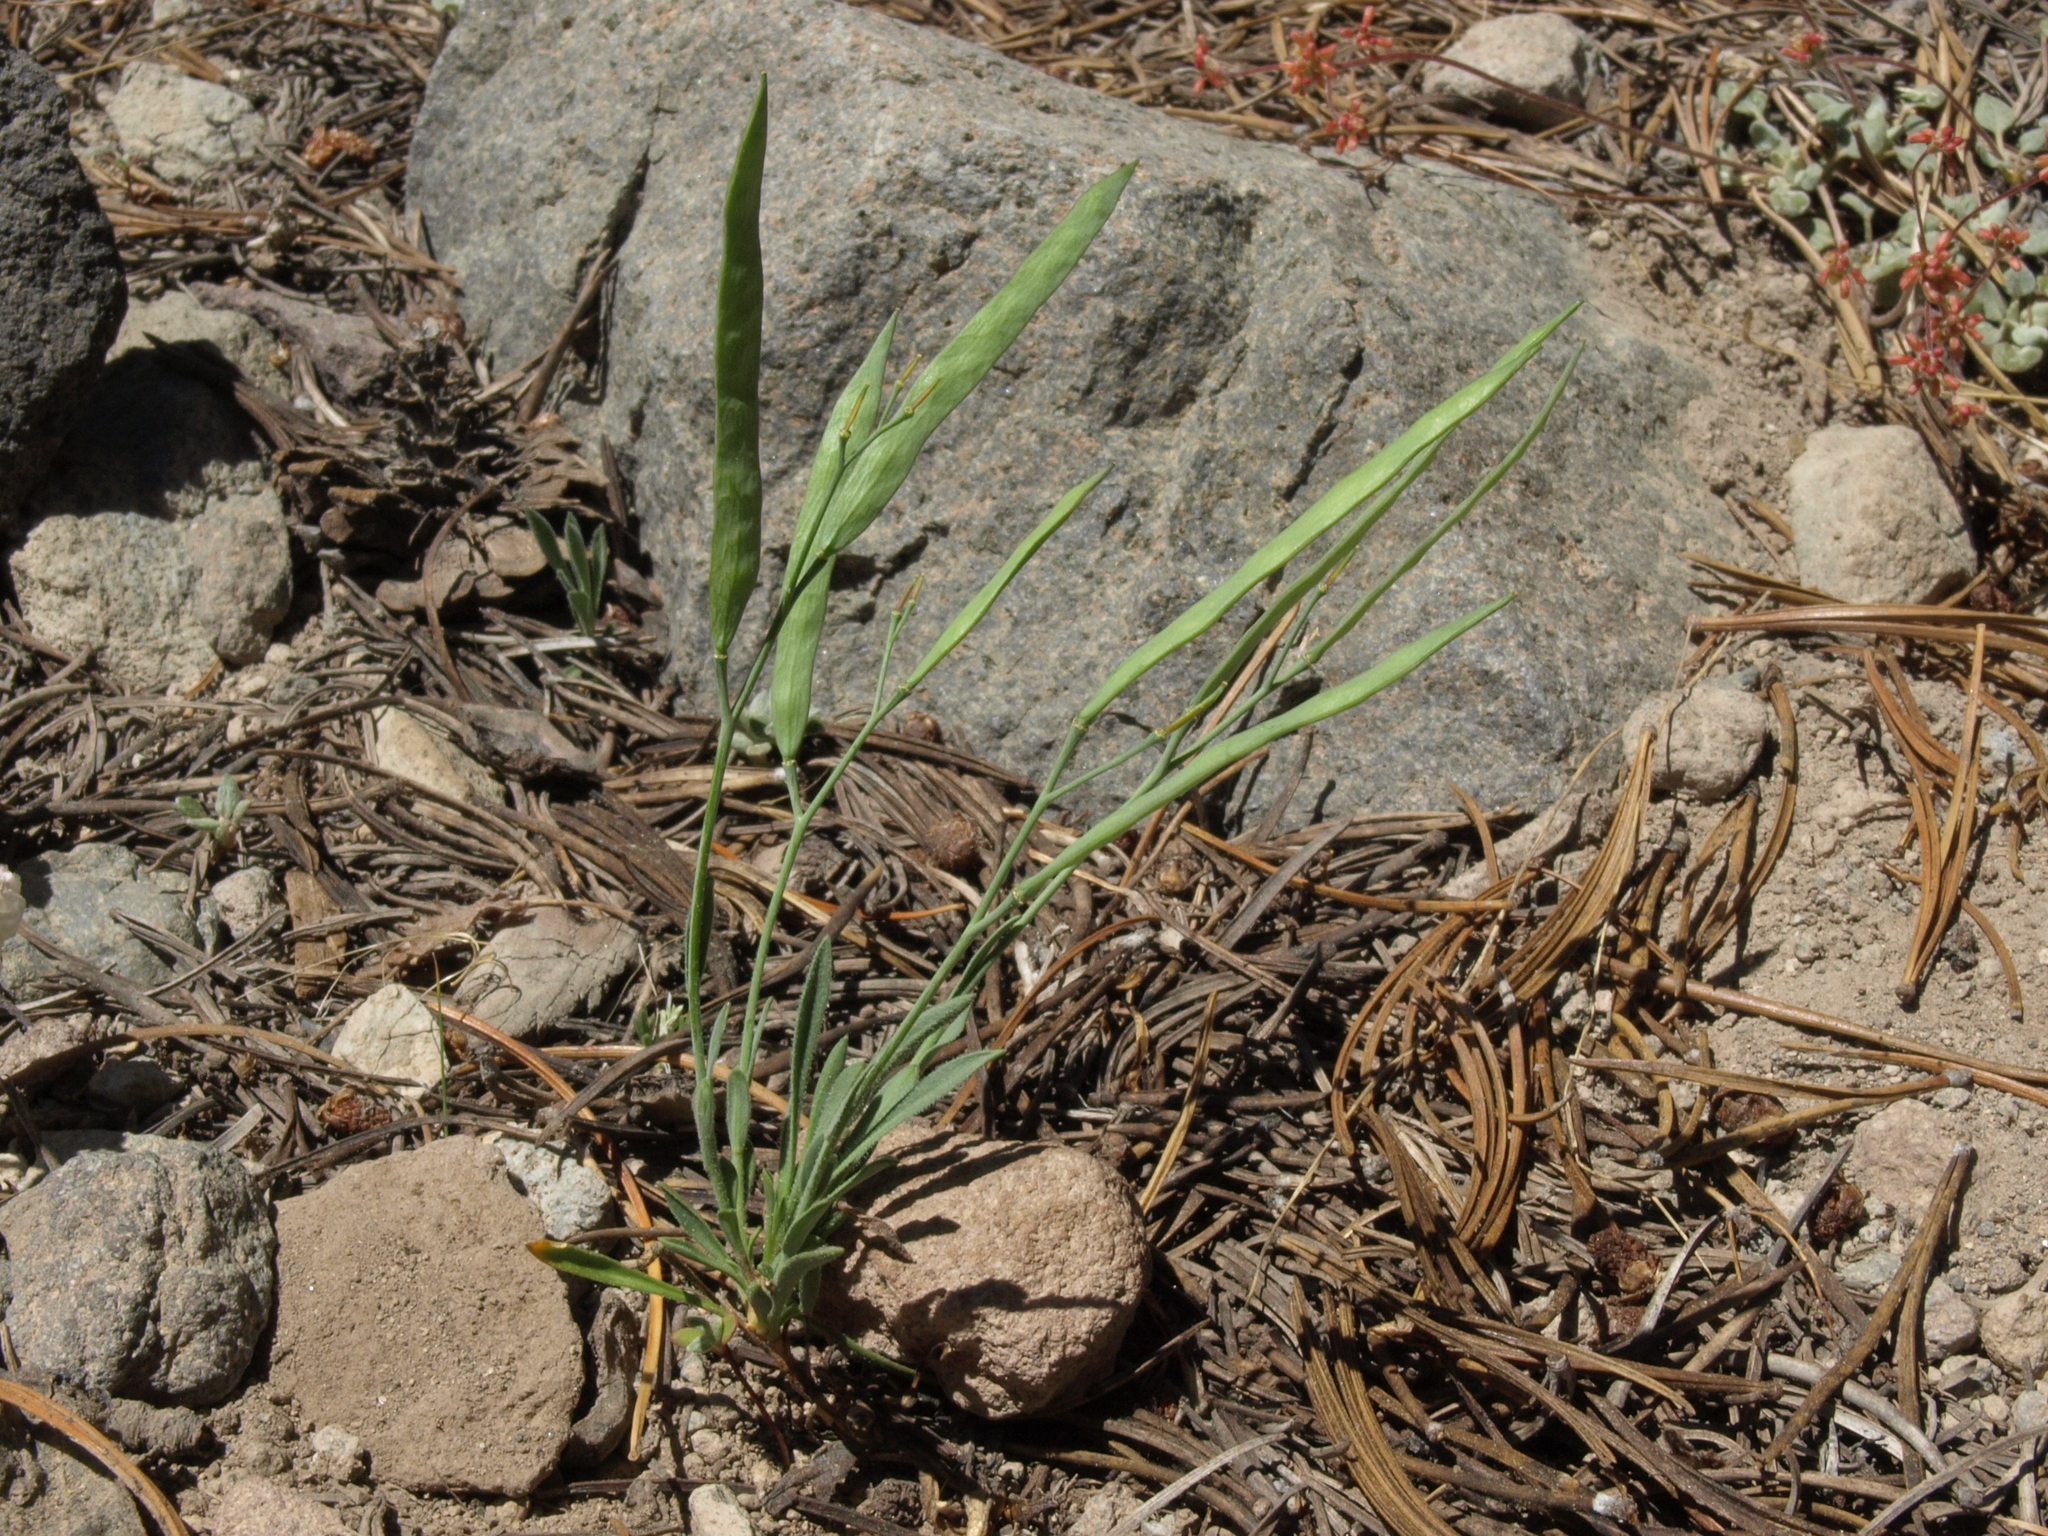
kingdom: Plantae
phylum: Tracheophyta
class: Magnoliopsida
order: Brassicales
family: Brassicaceae
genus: Boechera
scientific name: Boechera platysperma
